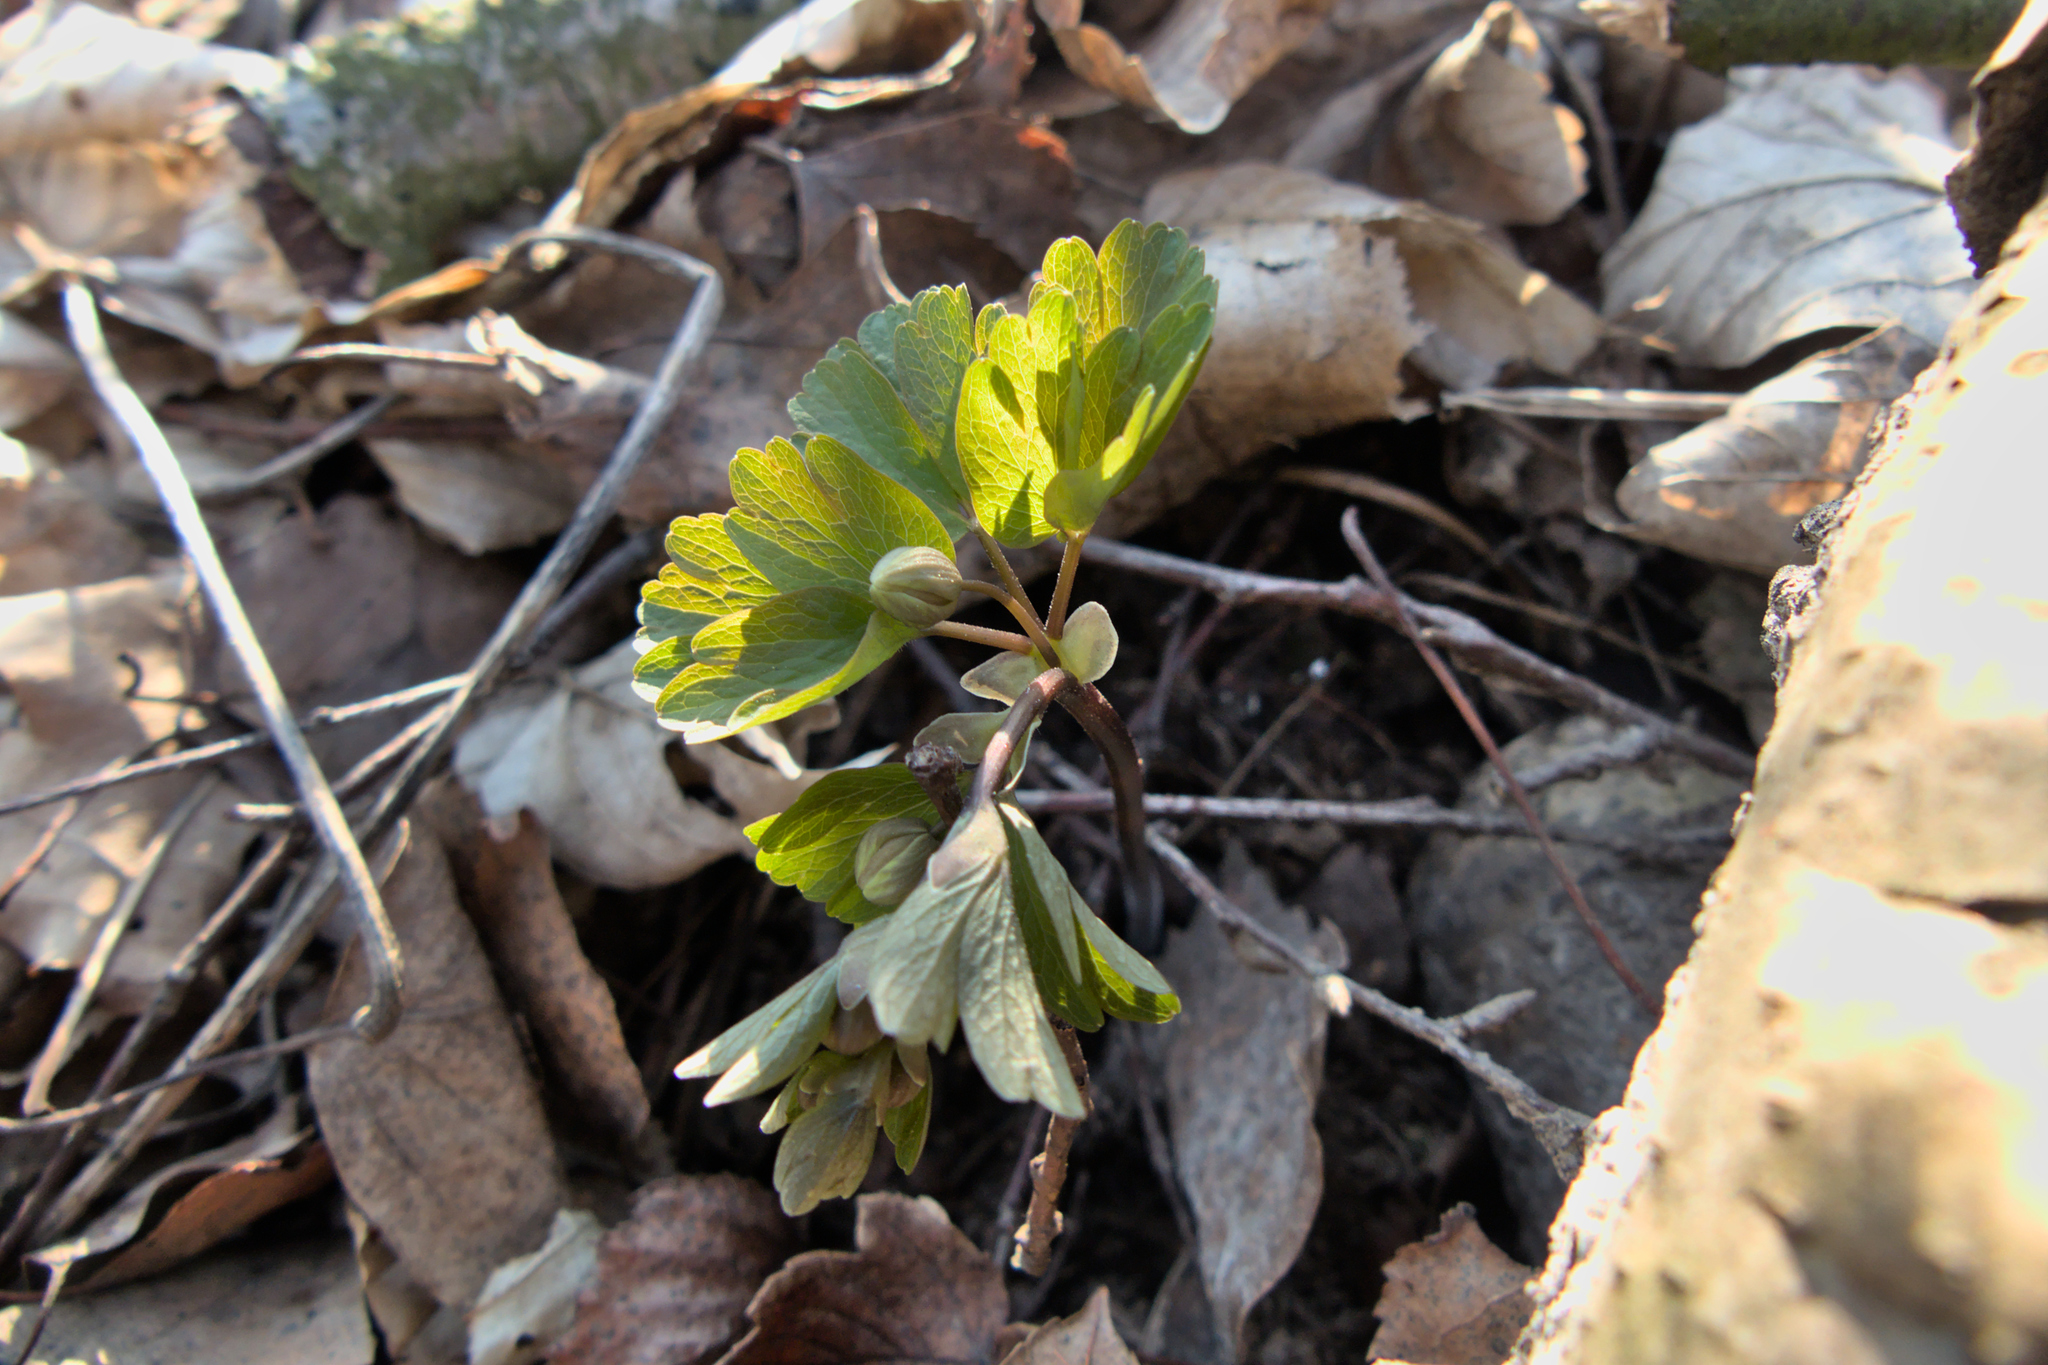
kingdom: Plantae
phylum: Tracheophyta
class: Magnoliopsida
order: Ranunculales
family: Ranunculaceae
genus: Isopyrum
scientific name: Isopyrum thalictroides
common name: Isopyrum
